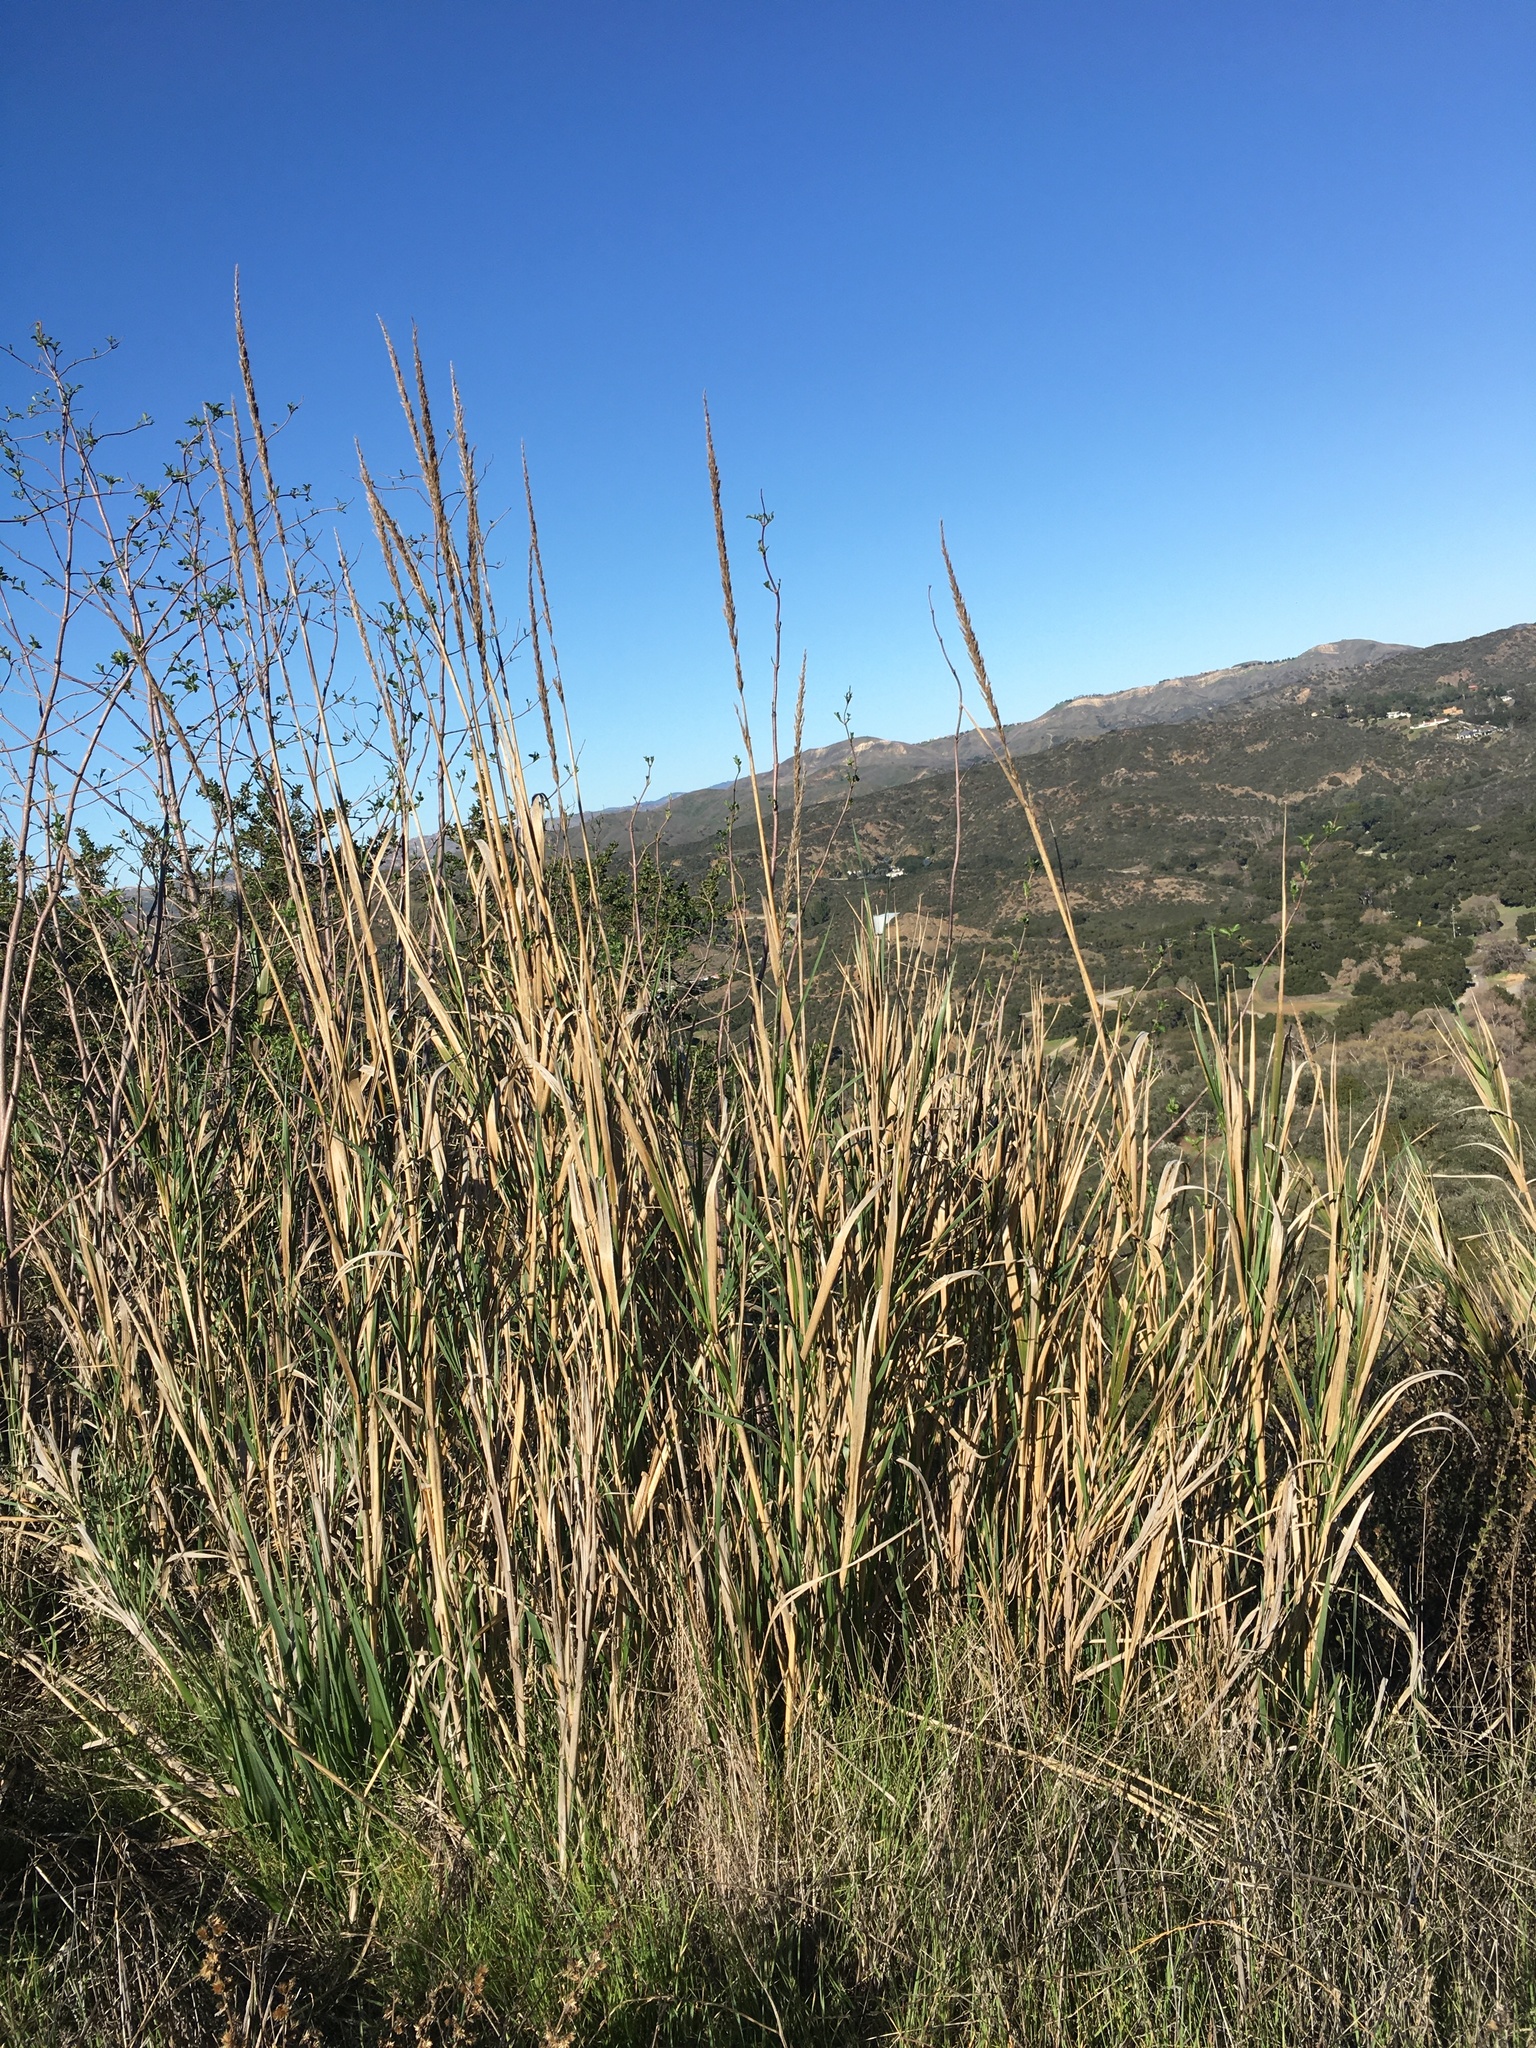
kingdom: Plantae
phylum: Tracheophyta
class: Liliopsida
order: Poales
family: Poaceae
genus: Leymus
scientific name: Leymus condensatus
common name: Giant wild rye
